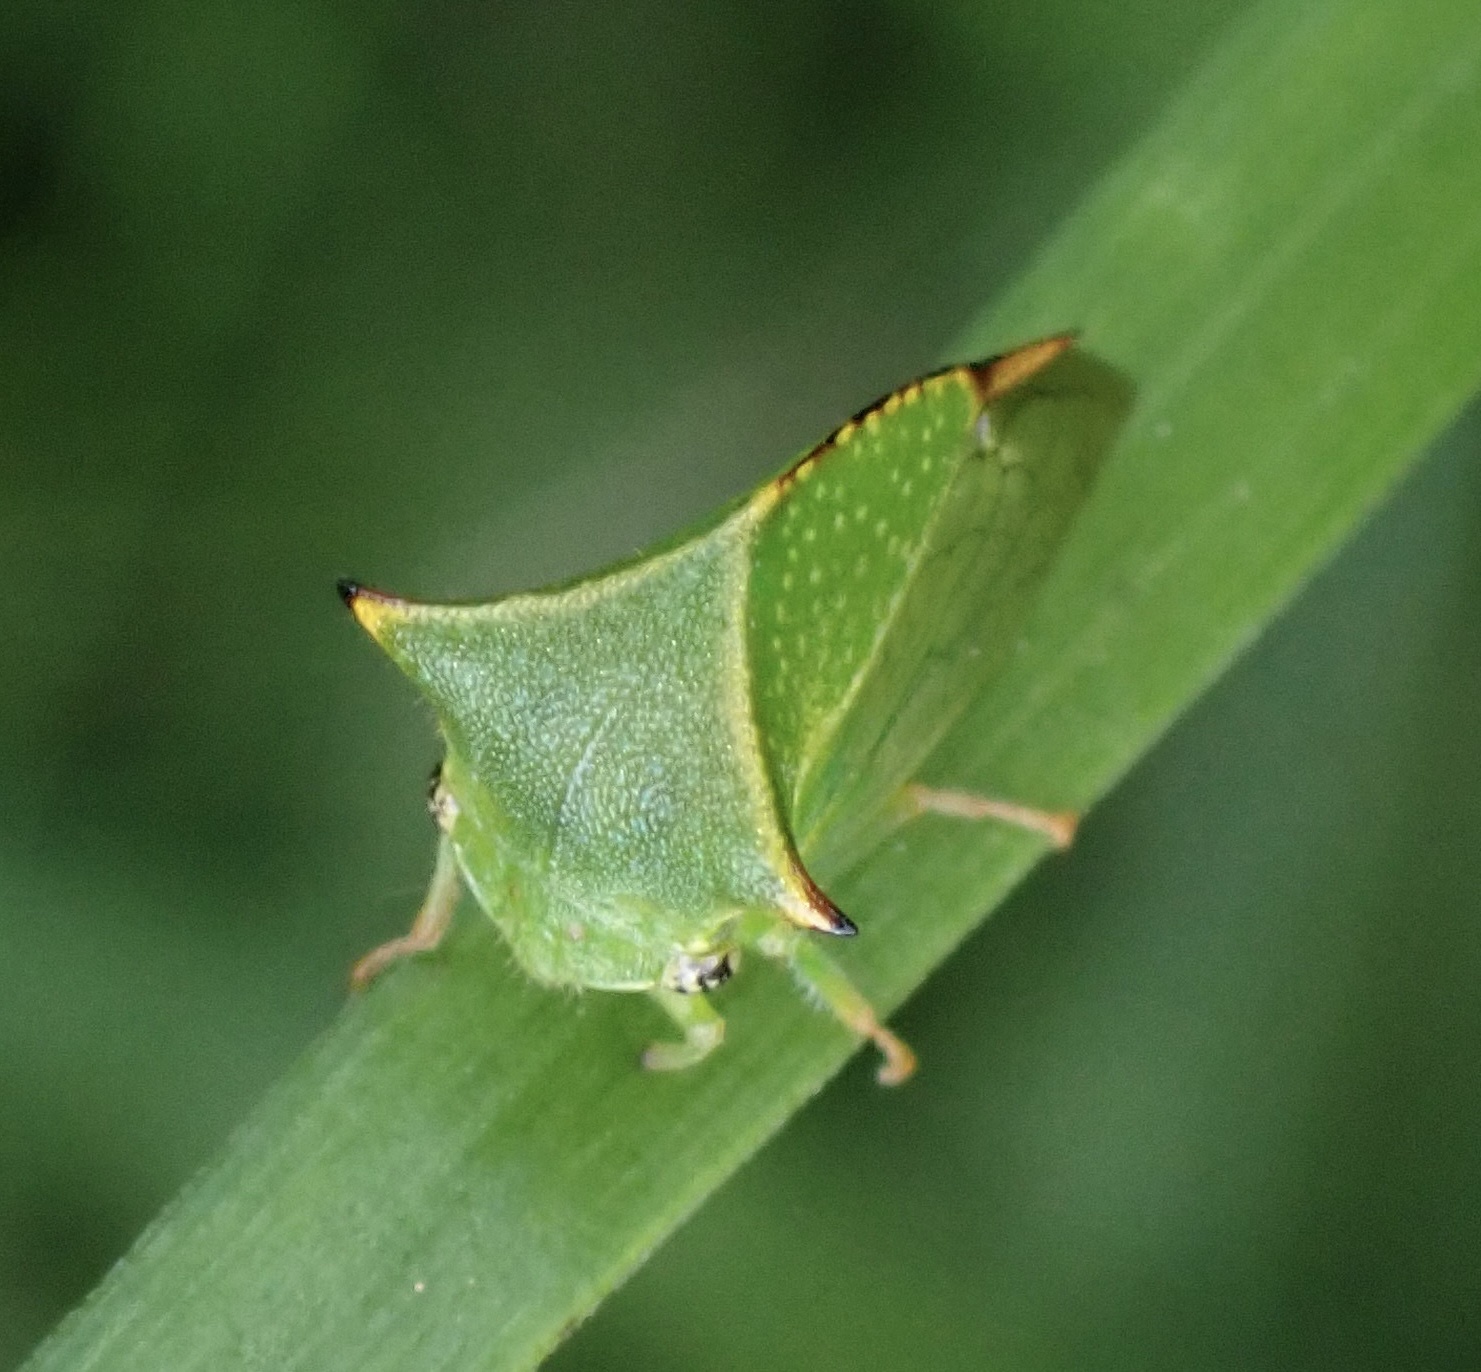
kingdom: Animalia
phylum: Arthropoda
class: Insecta
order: Hemiptera
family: Membracidae
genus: Stictocephala
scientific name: Stictocephala bisonia
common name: American buffalo treehopper
